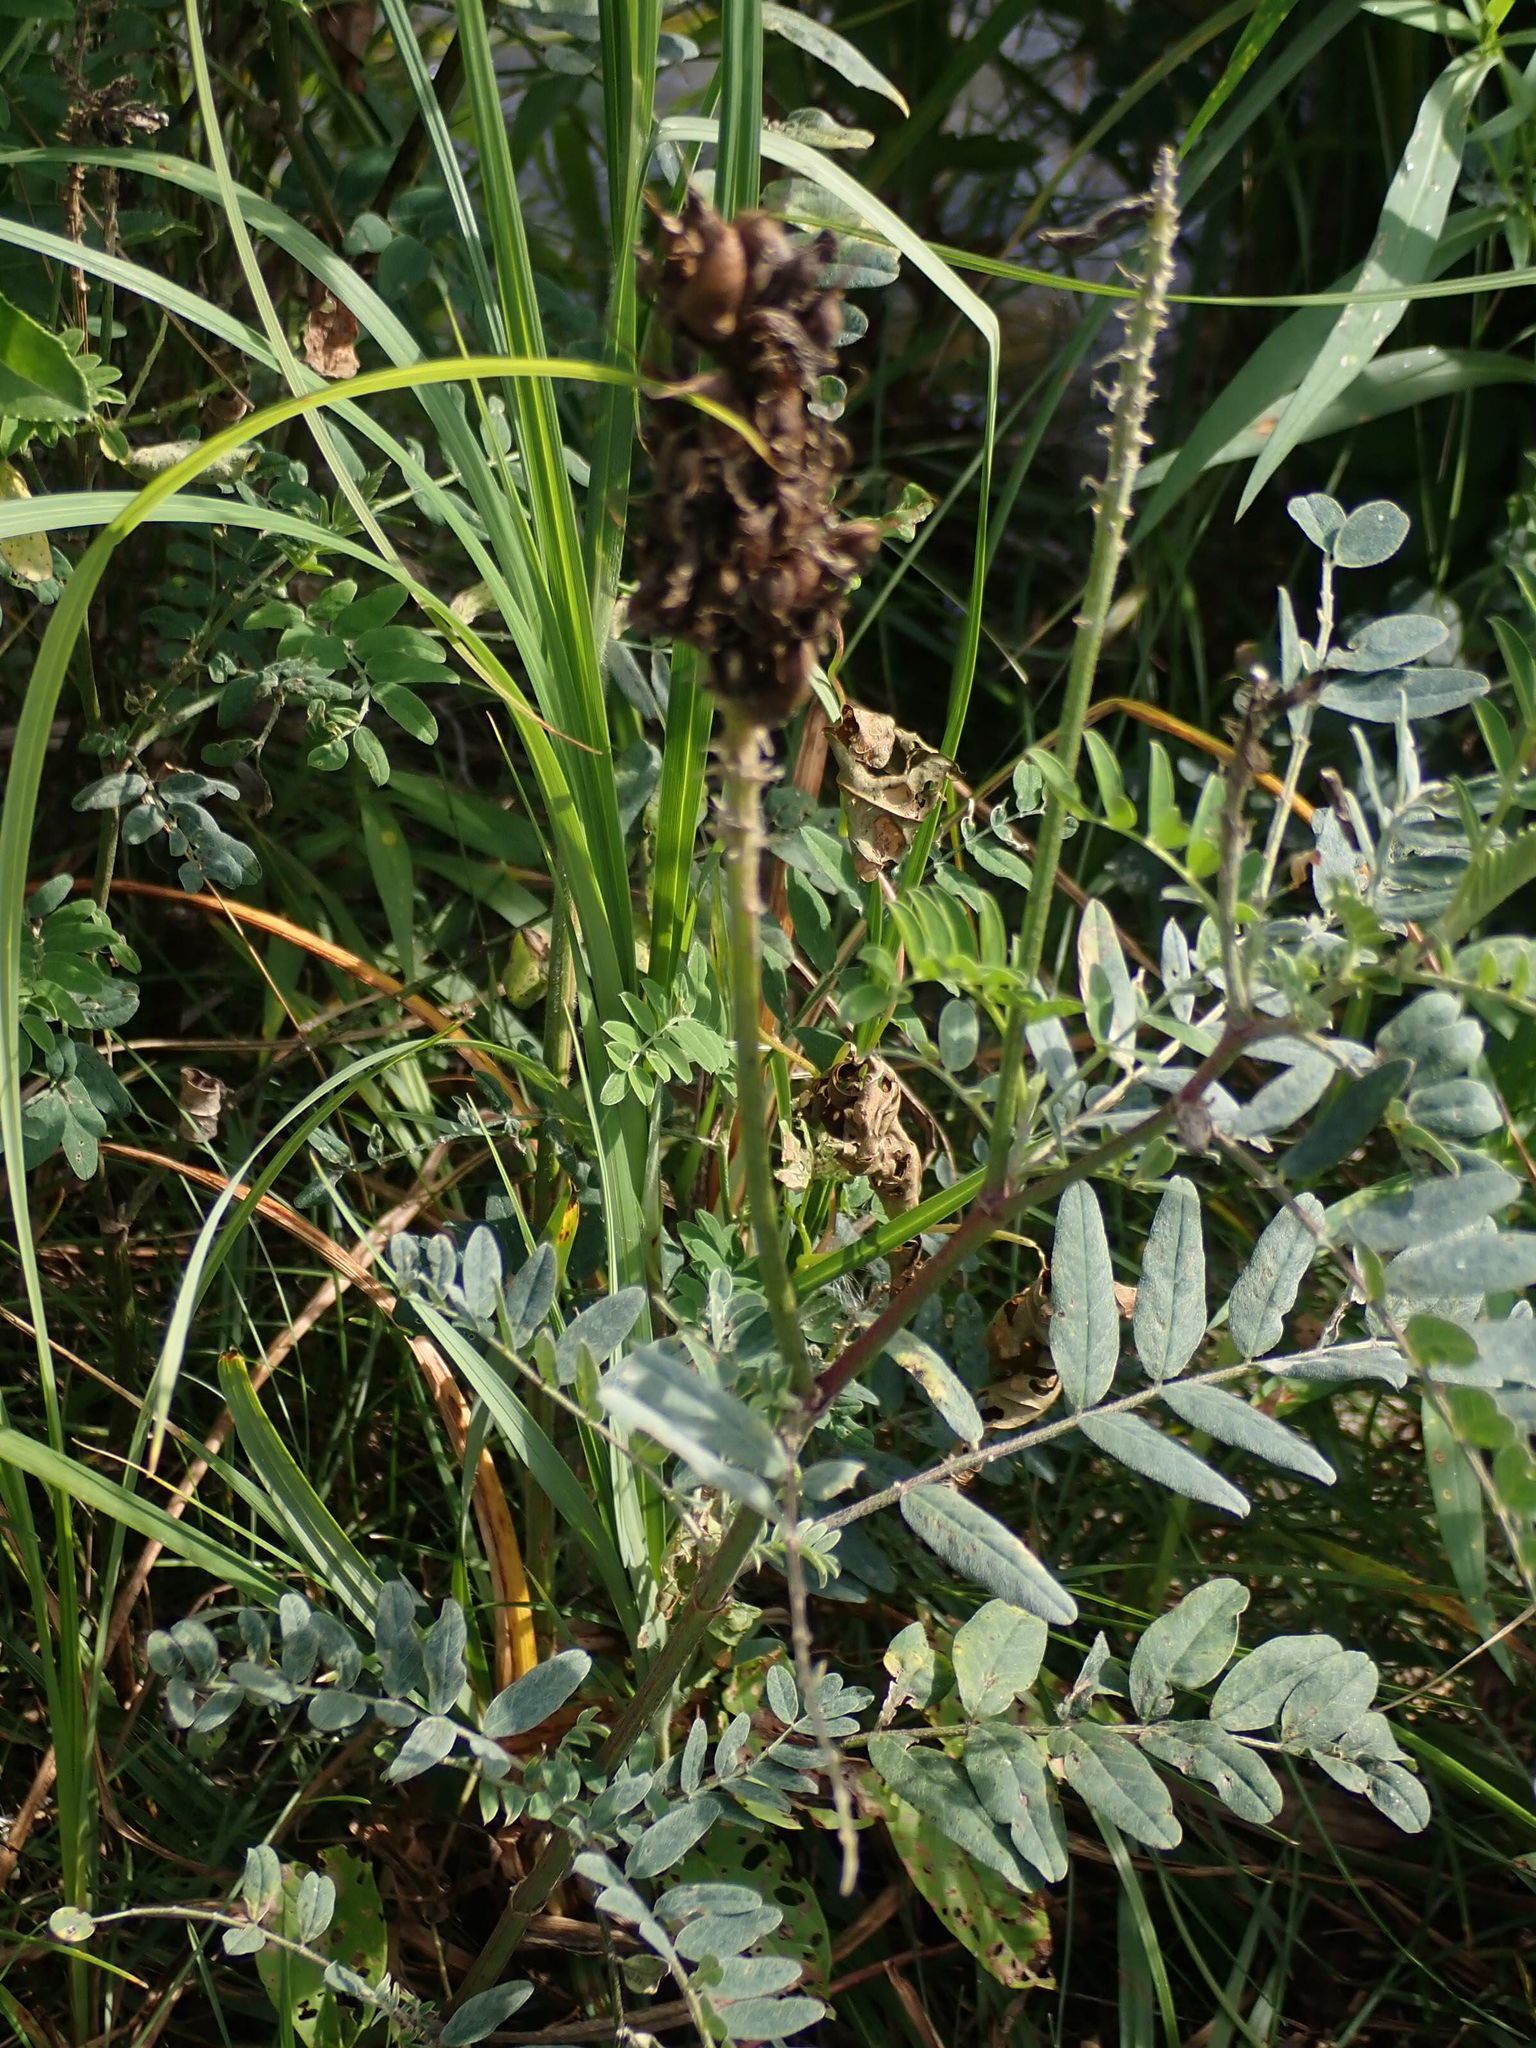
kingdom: Plantae
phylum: Tracheophyta
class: Magnoliopsida
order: Fabales
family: Fabaceae
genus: Astragalus
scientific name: Astragalus canadensis
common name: Canada milk-vetch
